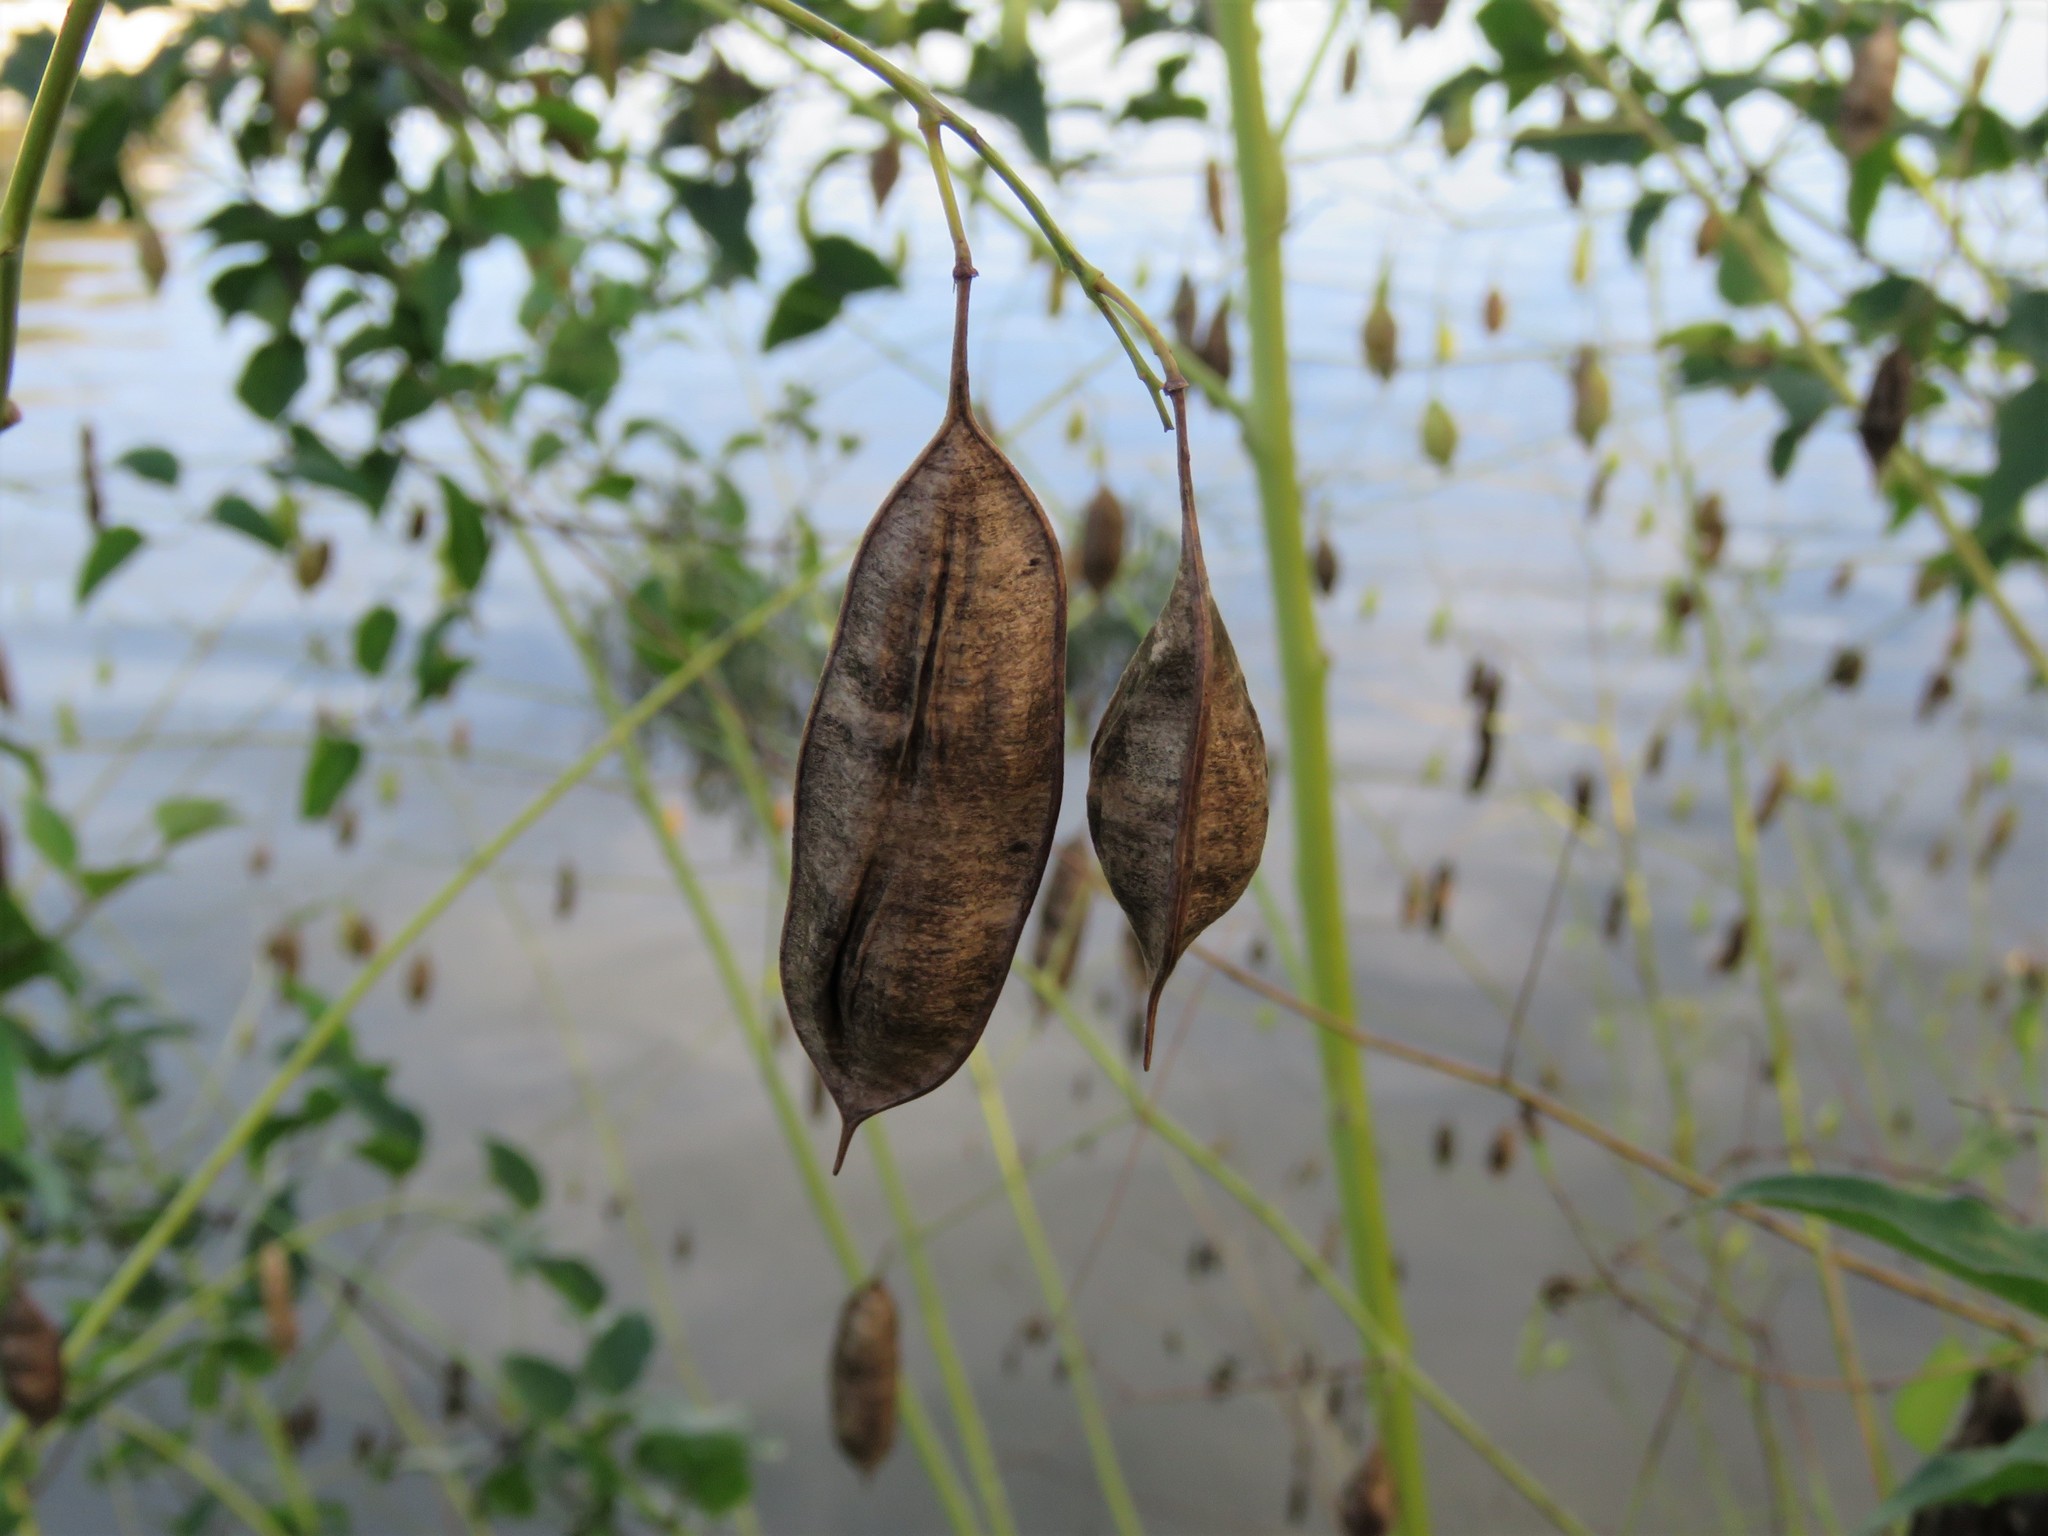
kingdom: Plantae
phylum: Tracheophyta
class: Magnoliopsida
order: Fabales
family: Fabaceae
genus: Sesbania
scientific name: Sesbania vesicaria
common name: Bagpod
